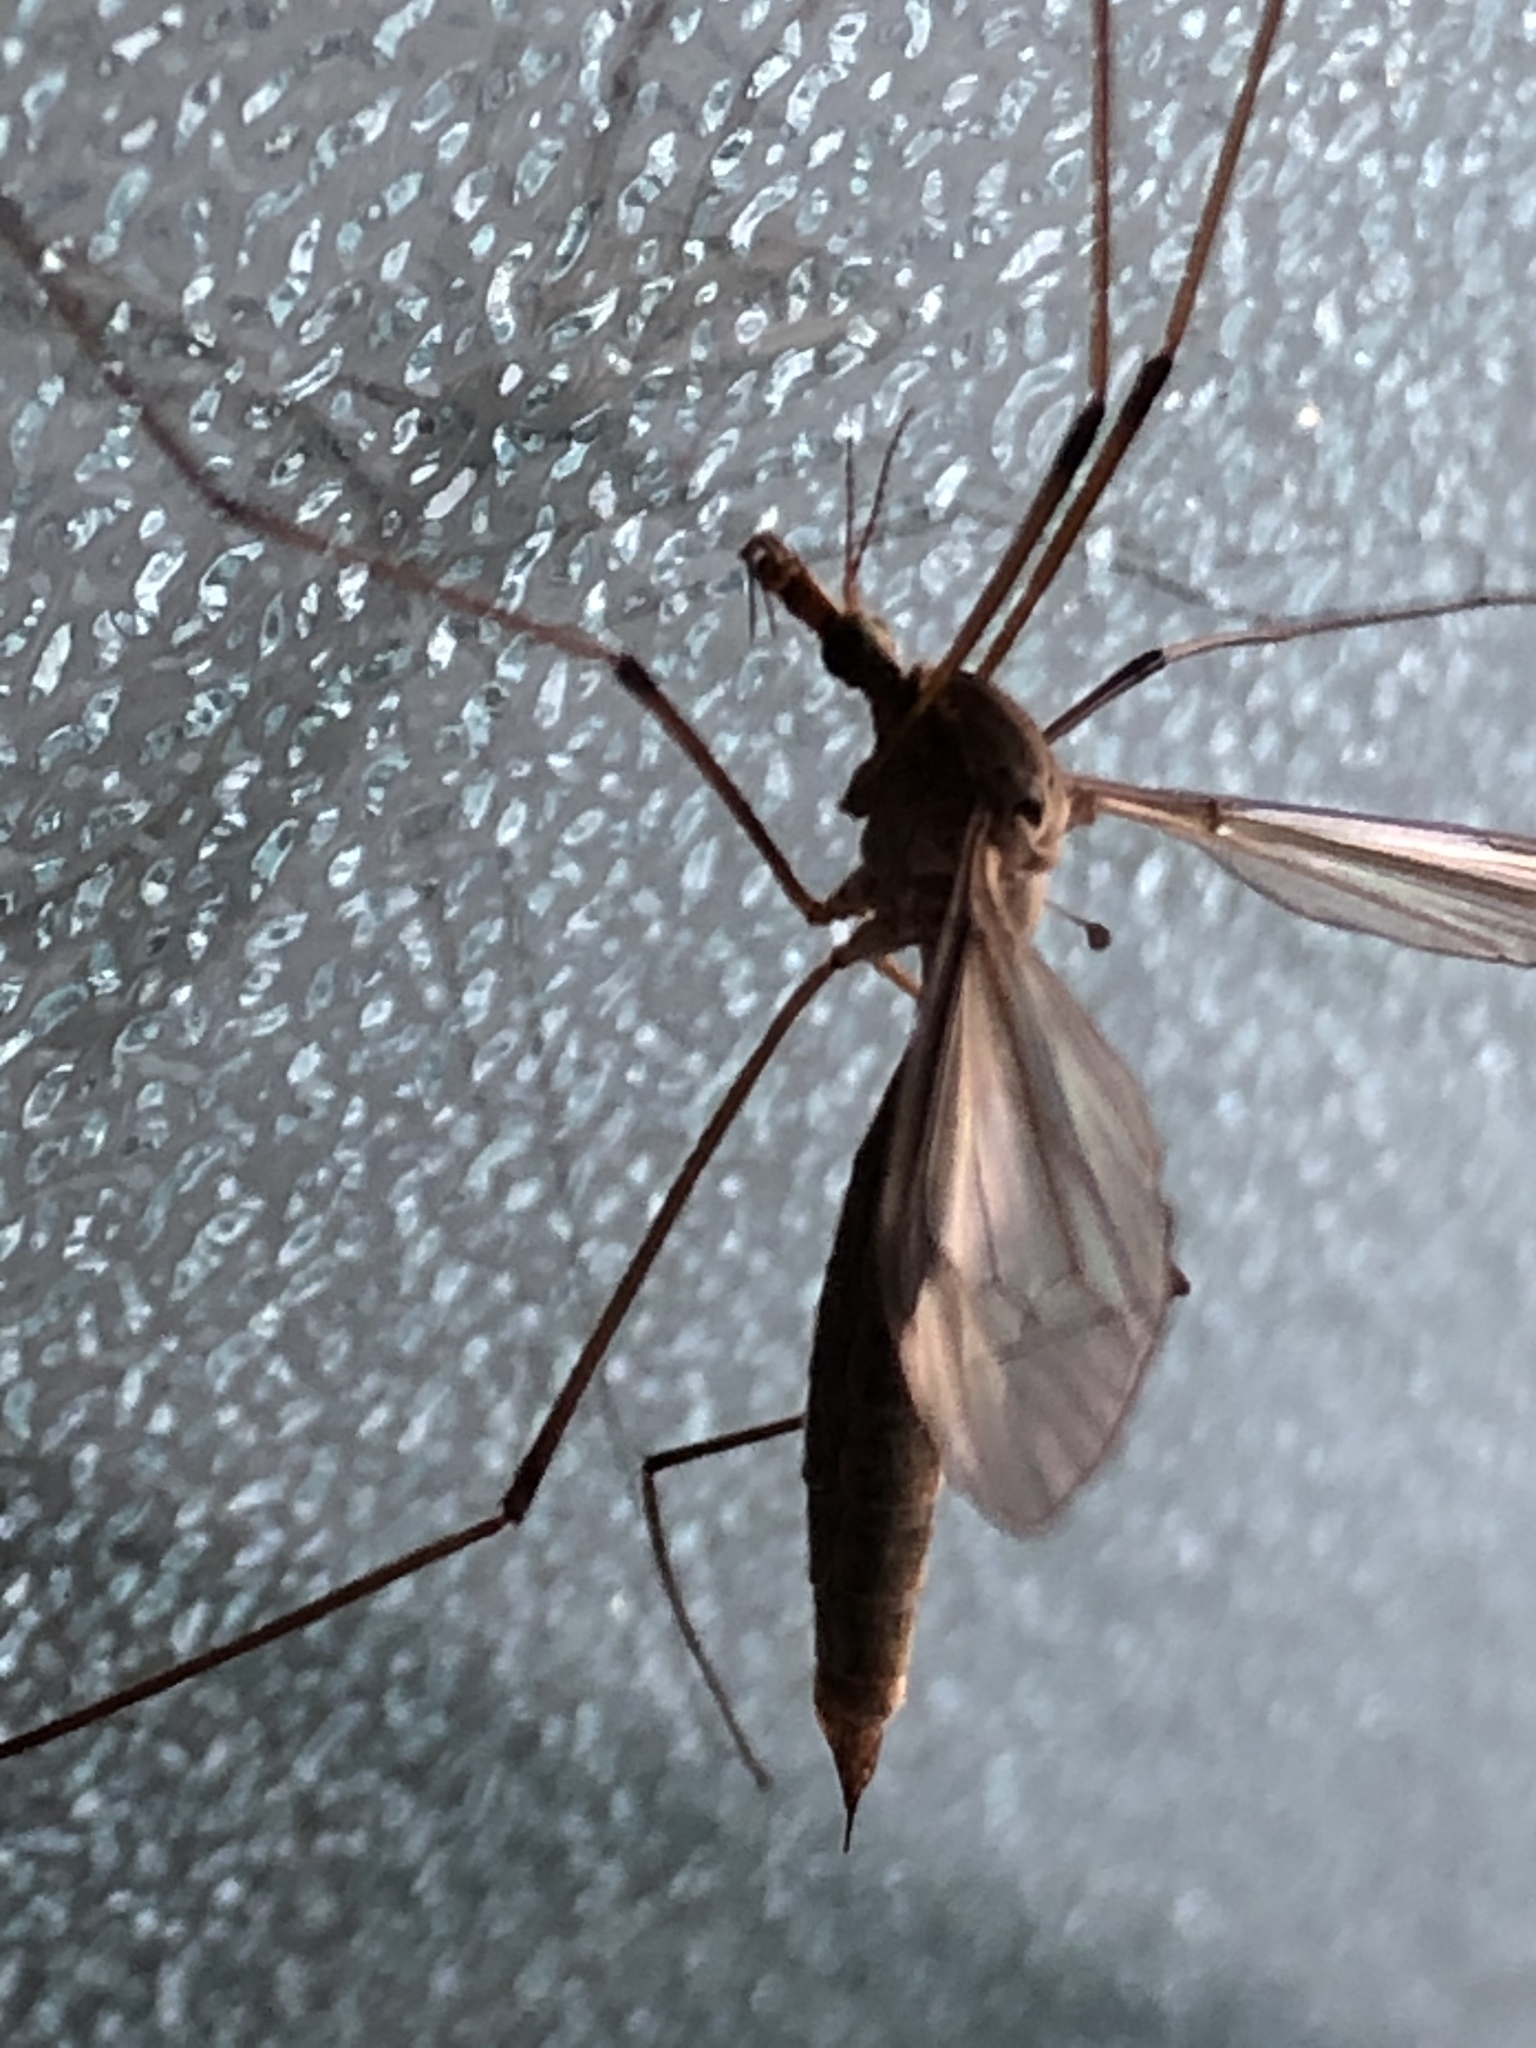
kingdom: Animalia
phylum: Arthropoda
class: Insecta
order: Diptera
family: Tipulidae
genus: Tipula
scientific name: Tipula oleracea
